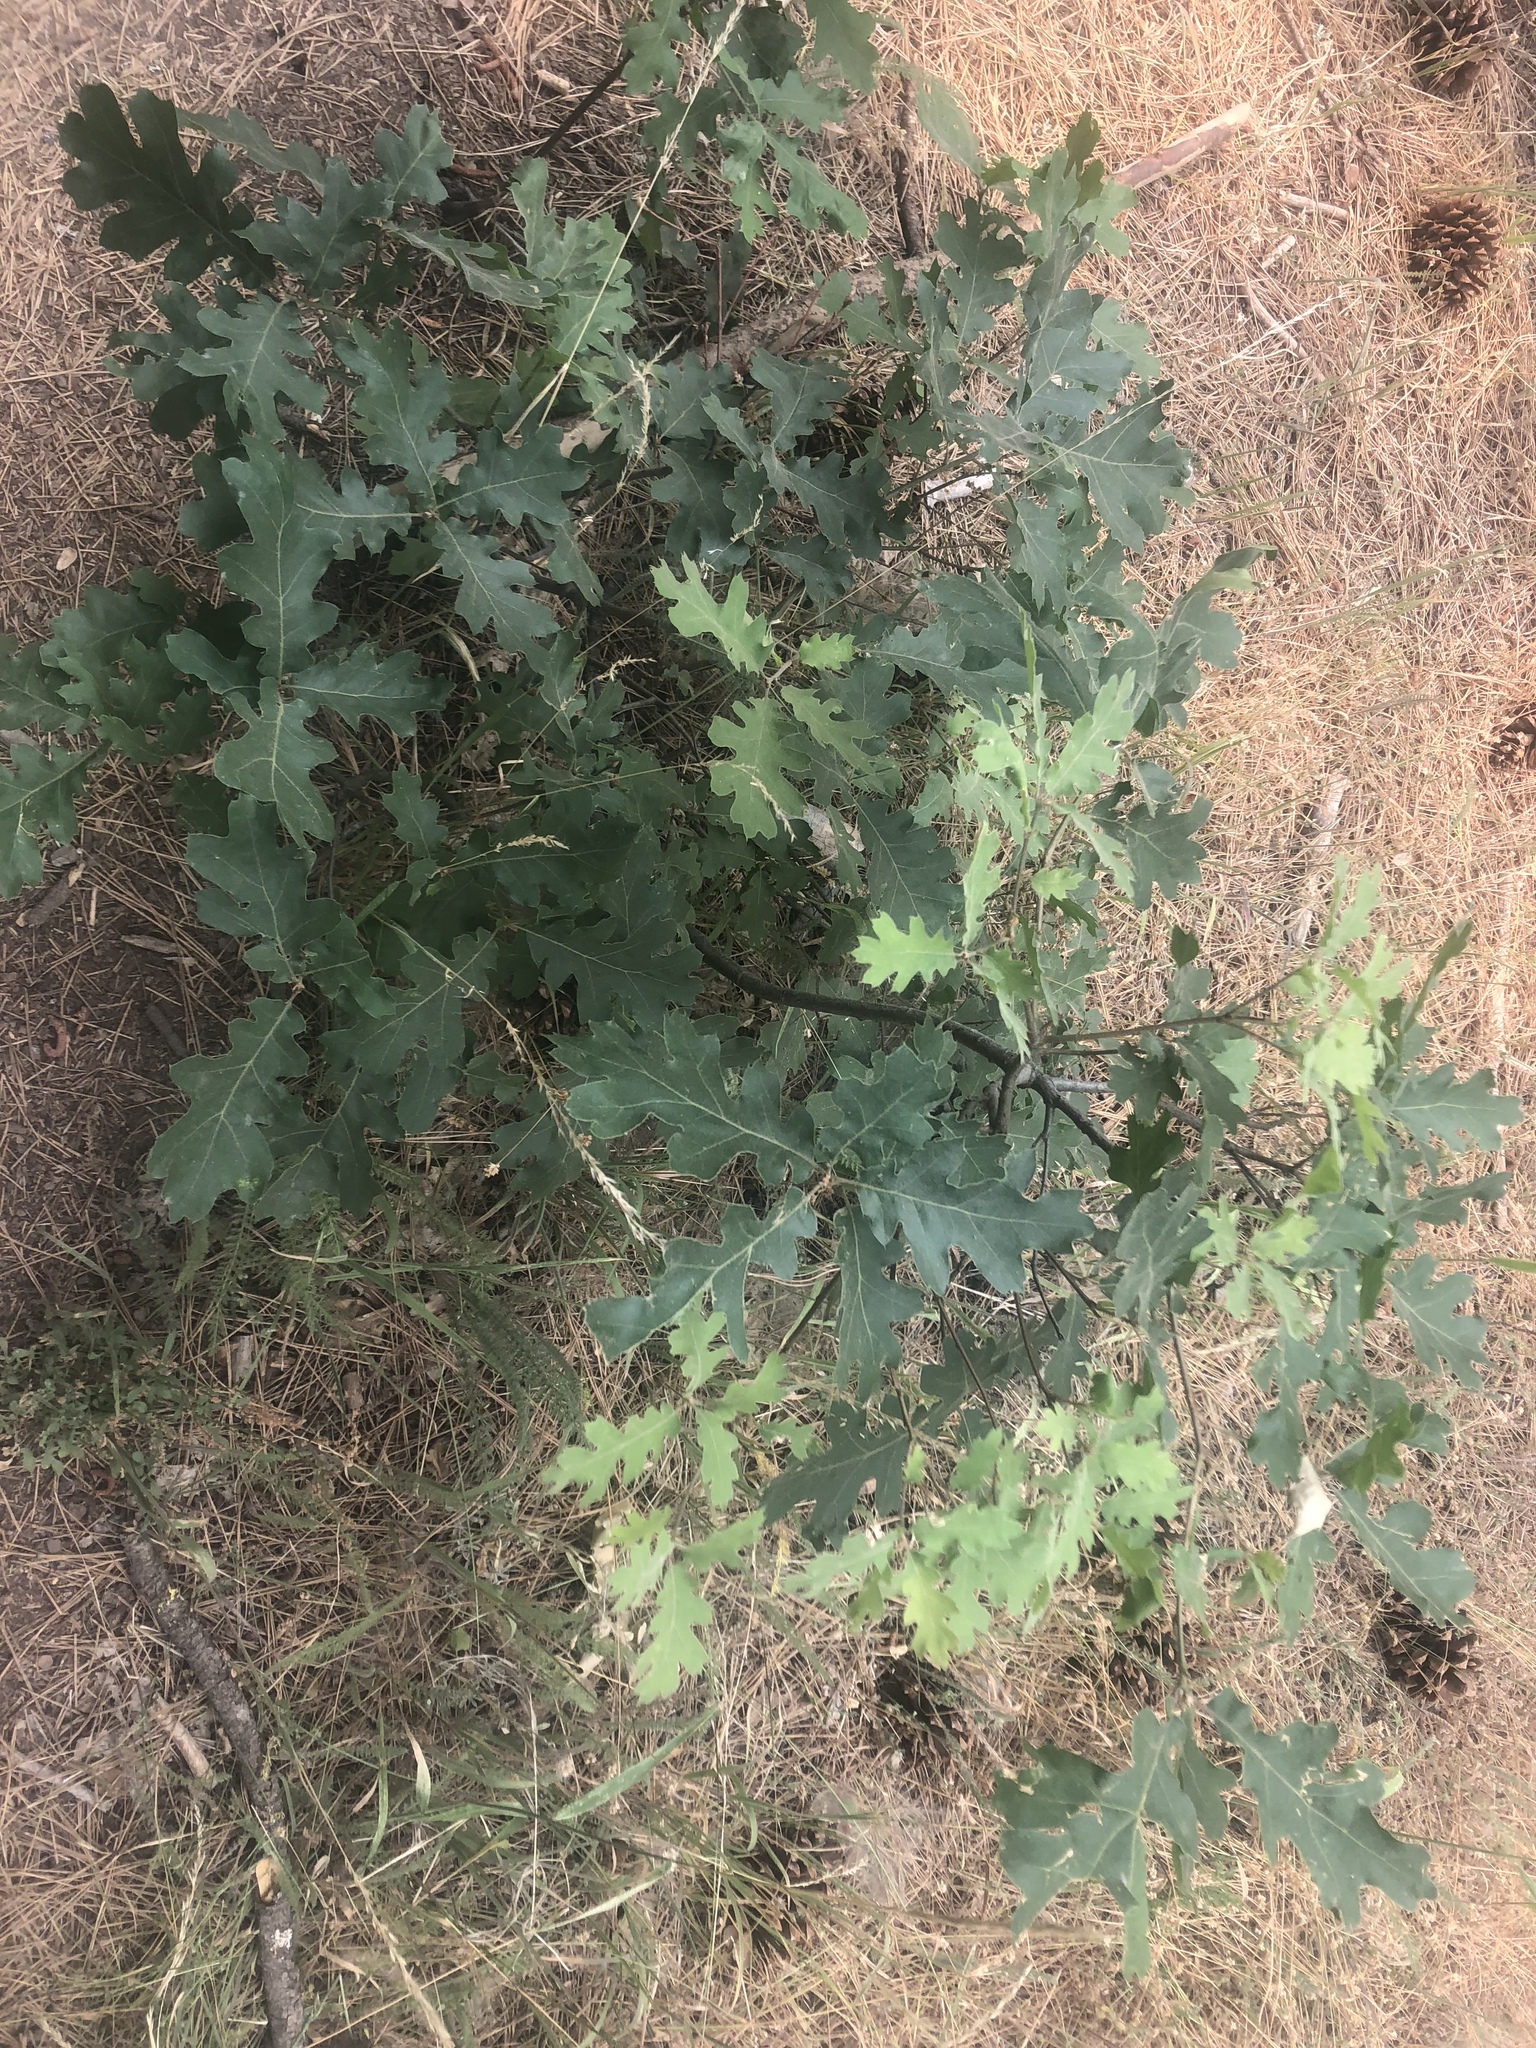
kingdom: Plantae
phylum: Tracheophyta
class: Magnoliopsida
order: Fagales
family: Fagaceae
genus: Quercus
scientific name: Quercus kelloggii
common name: California black oak
